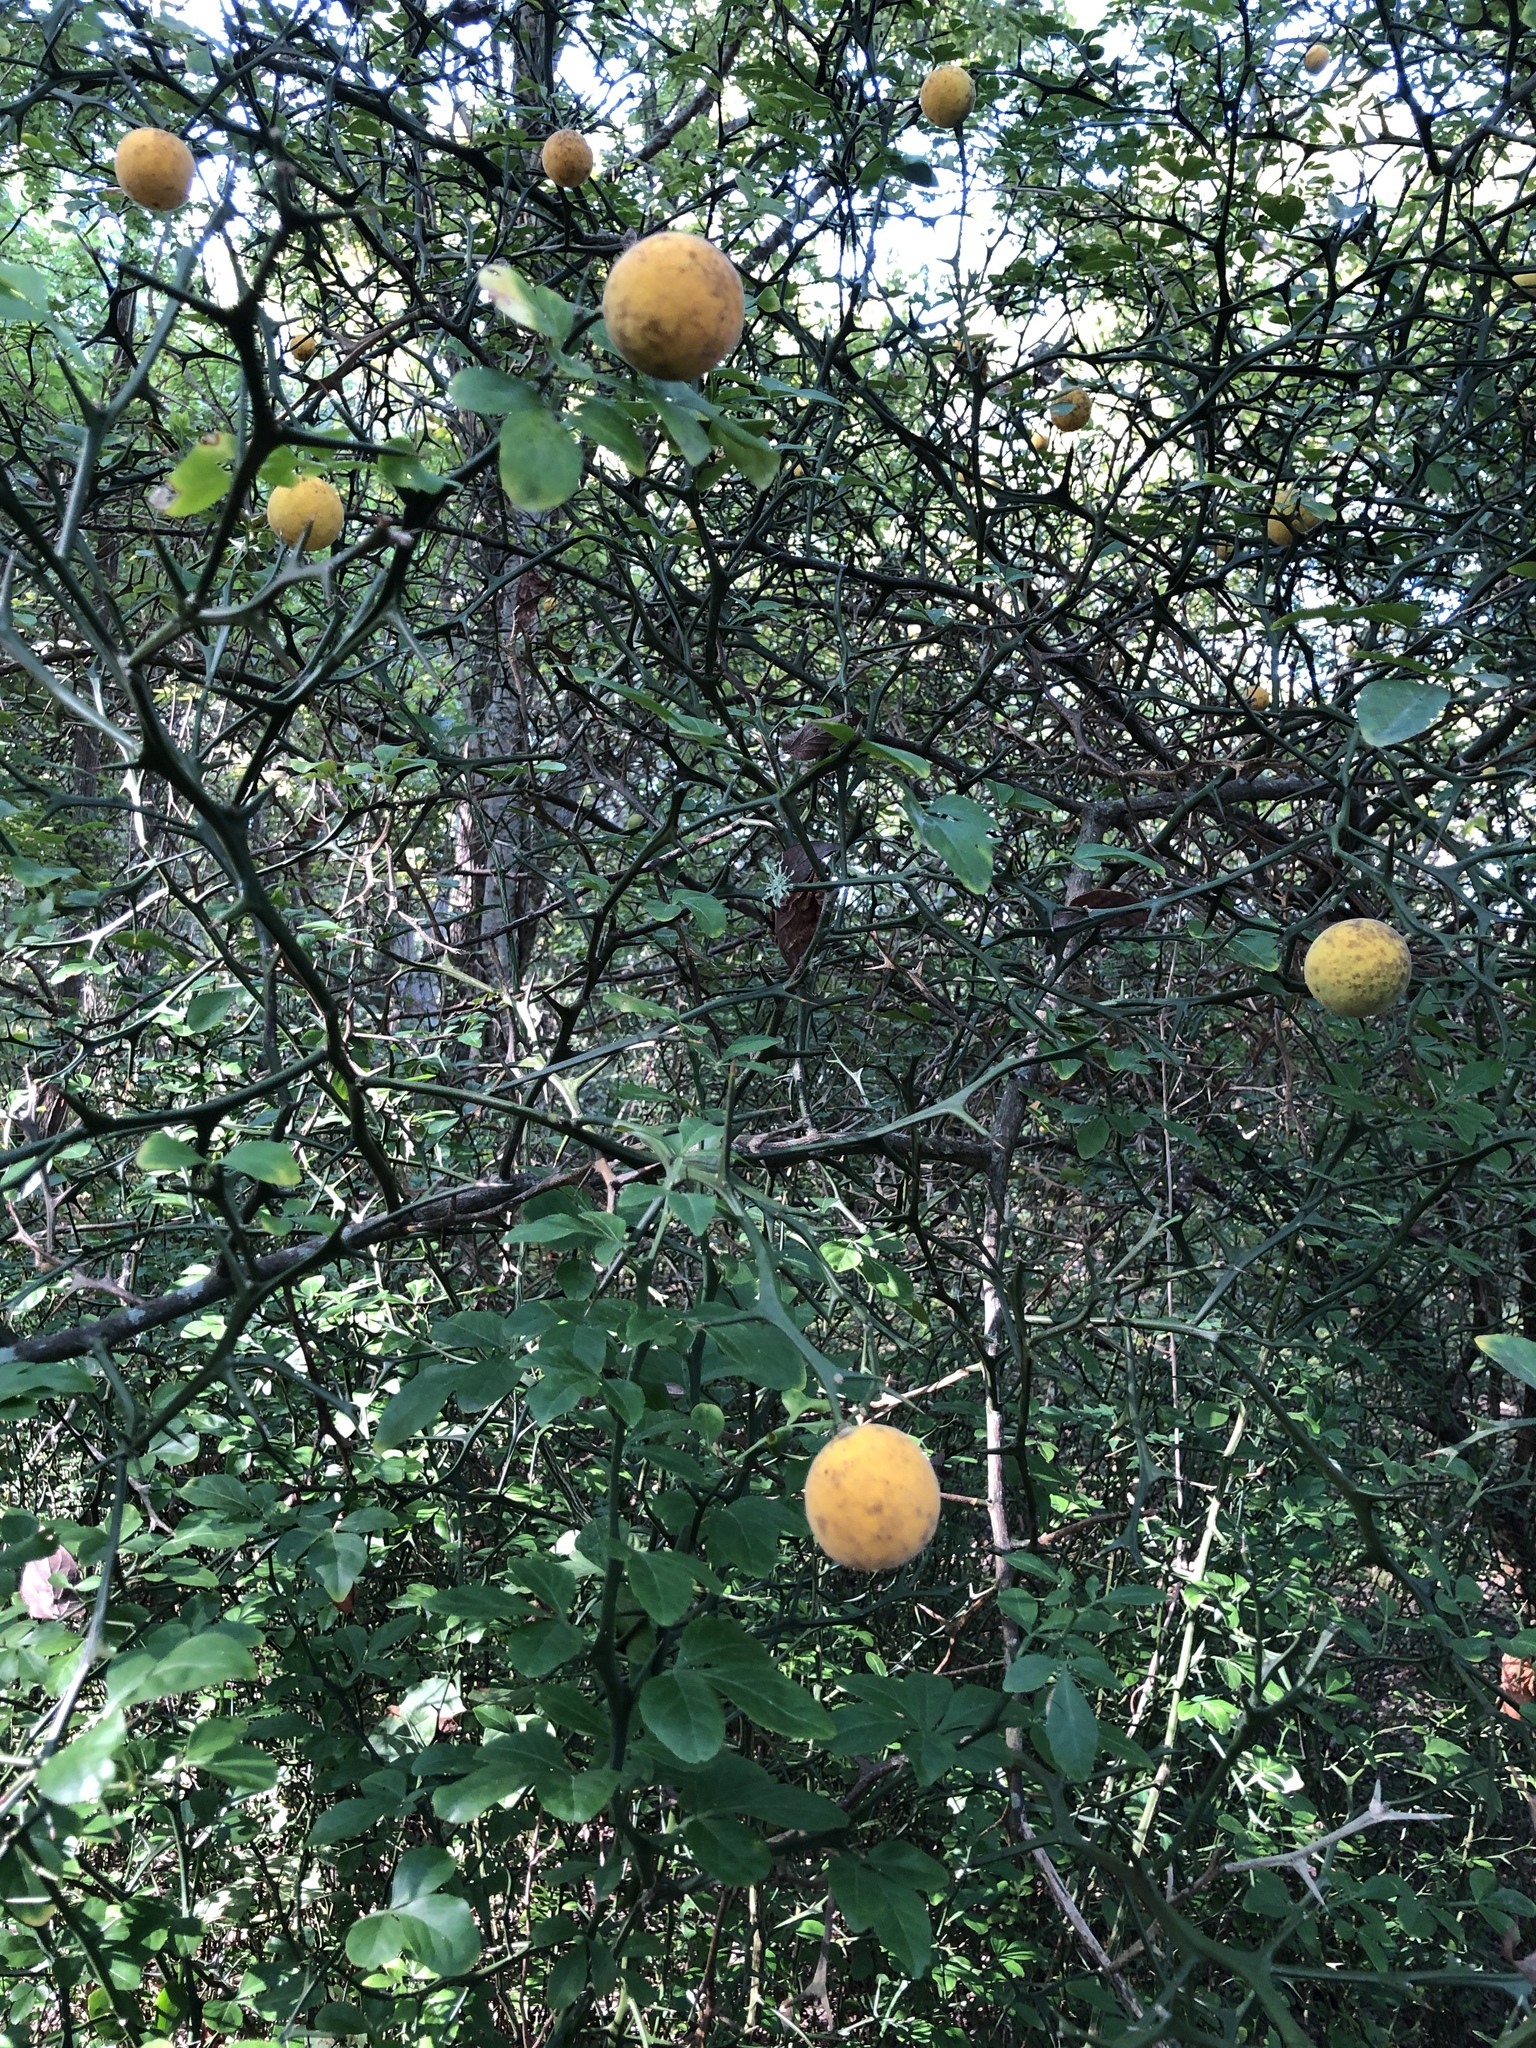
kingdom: Plantae
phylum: Tracheophyta
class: Magnoliopsida
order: Sapindales
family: Rutaceae
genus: Citrus
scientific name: Citrus trifoliata
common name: Japanese bitter-orange
